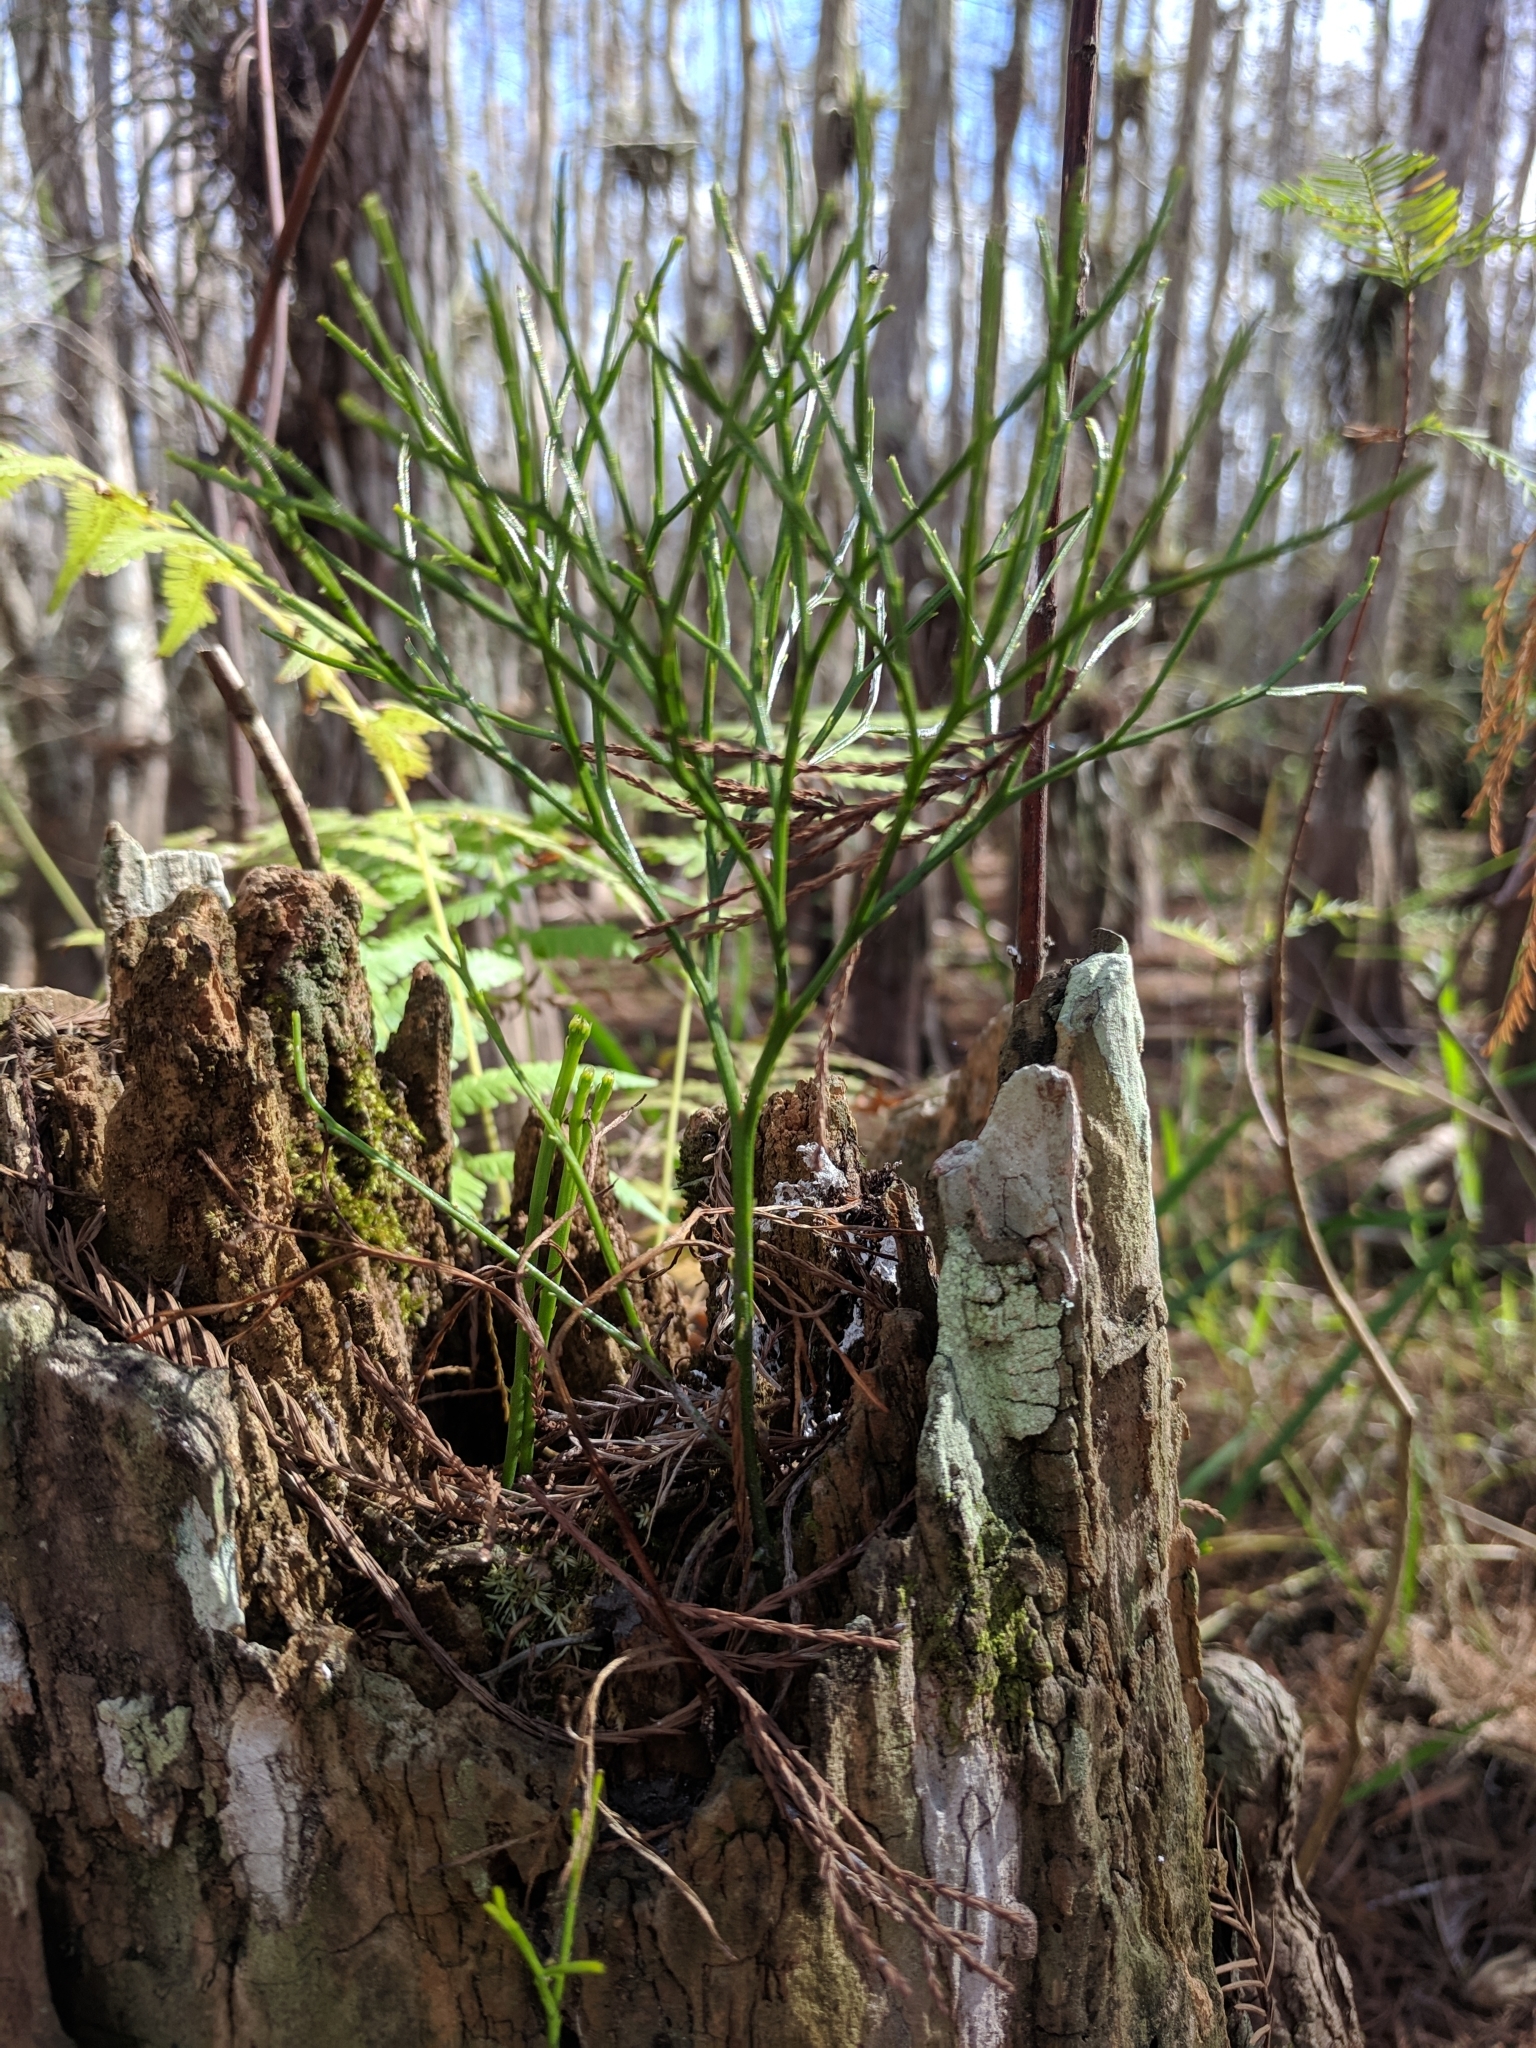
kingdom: Plantae
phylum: Tracheophyta
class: Polypodiopsida
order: Psilotales
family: Psilotaceae
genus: Psilotum
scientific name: Psilotum nudum
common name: Skeleton fork fern
